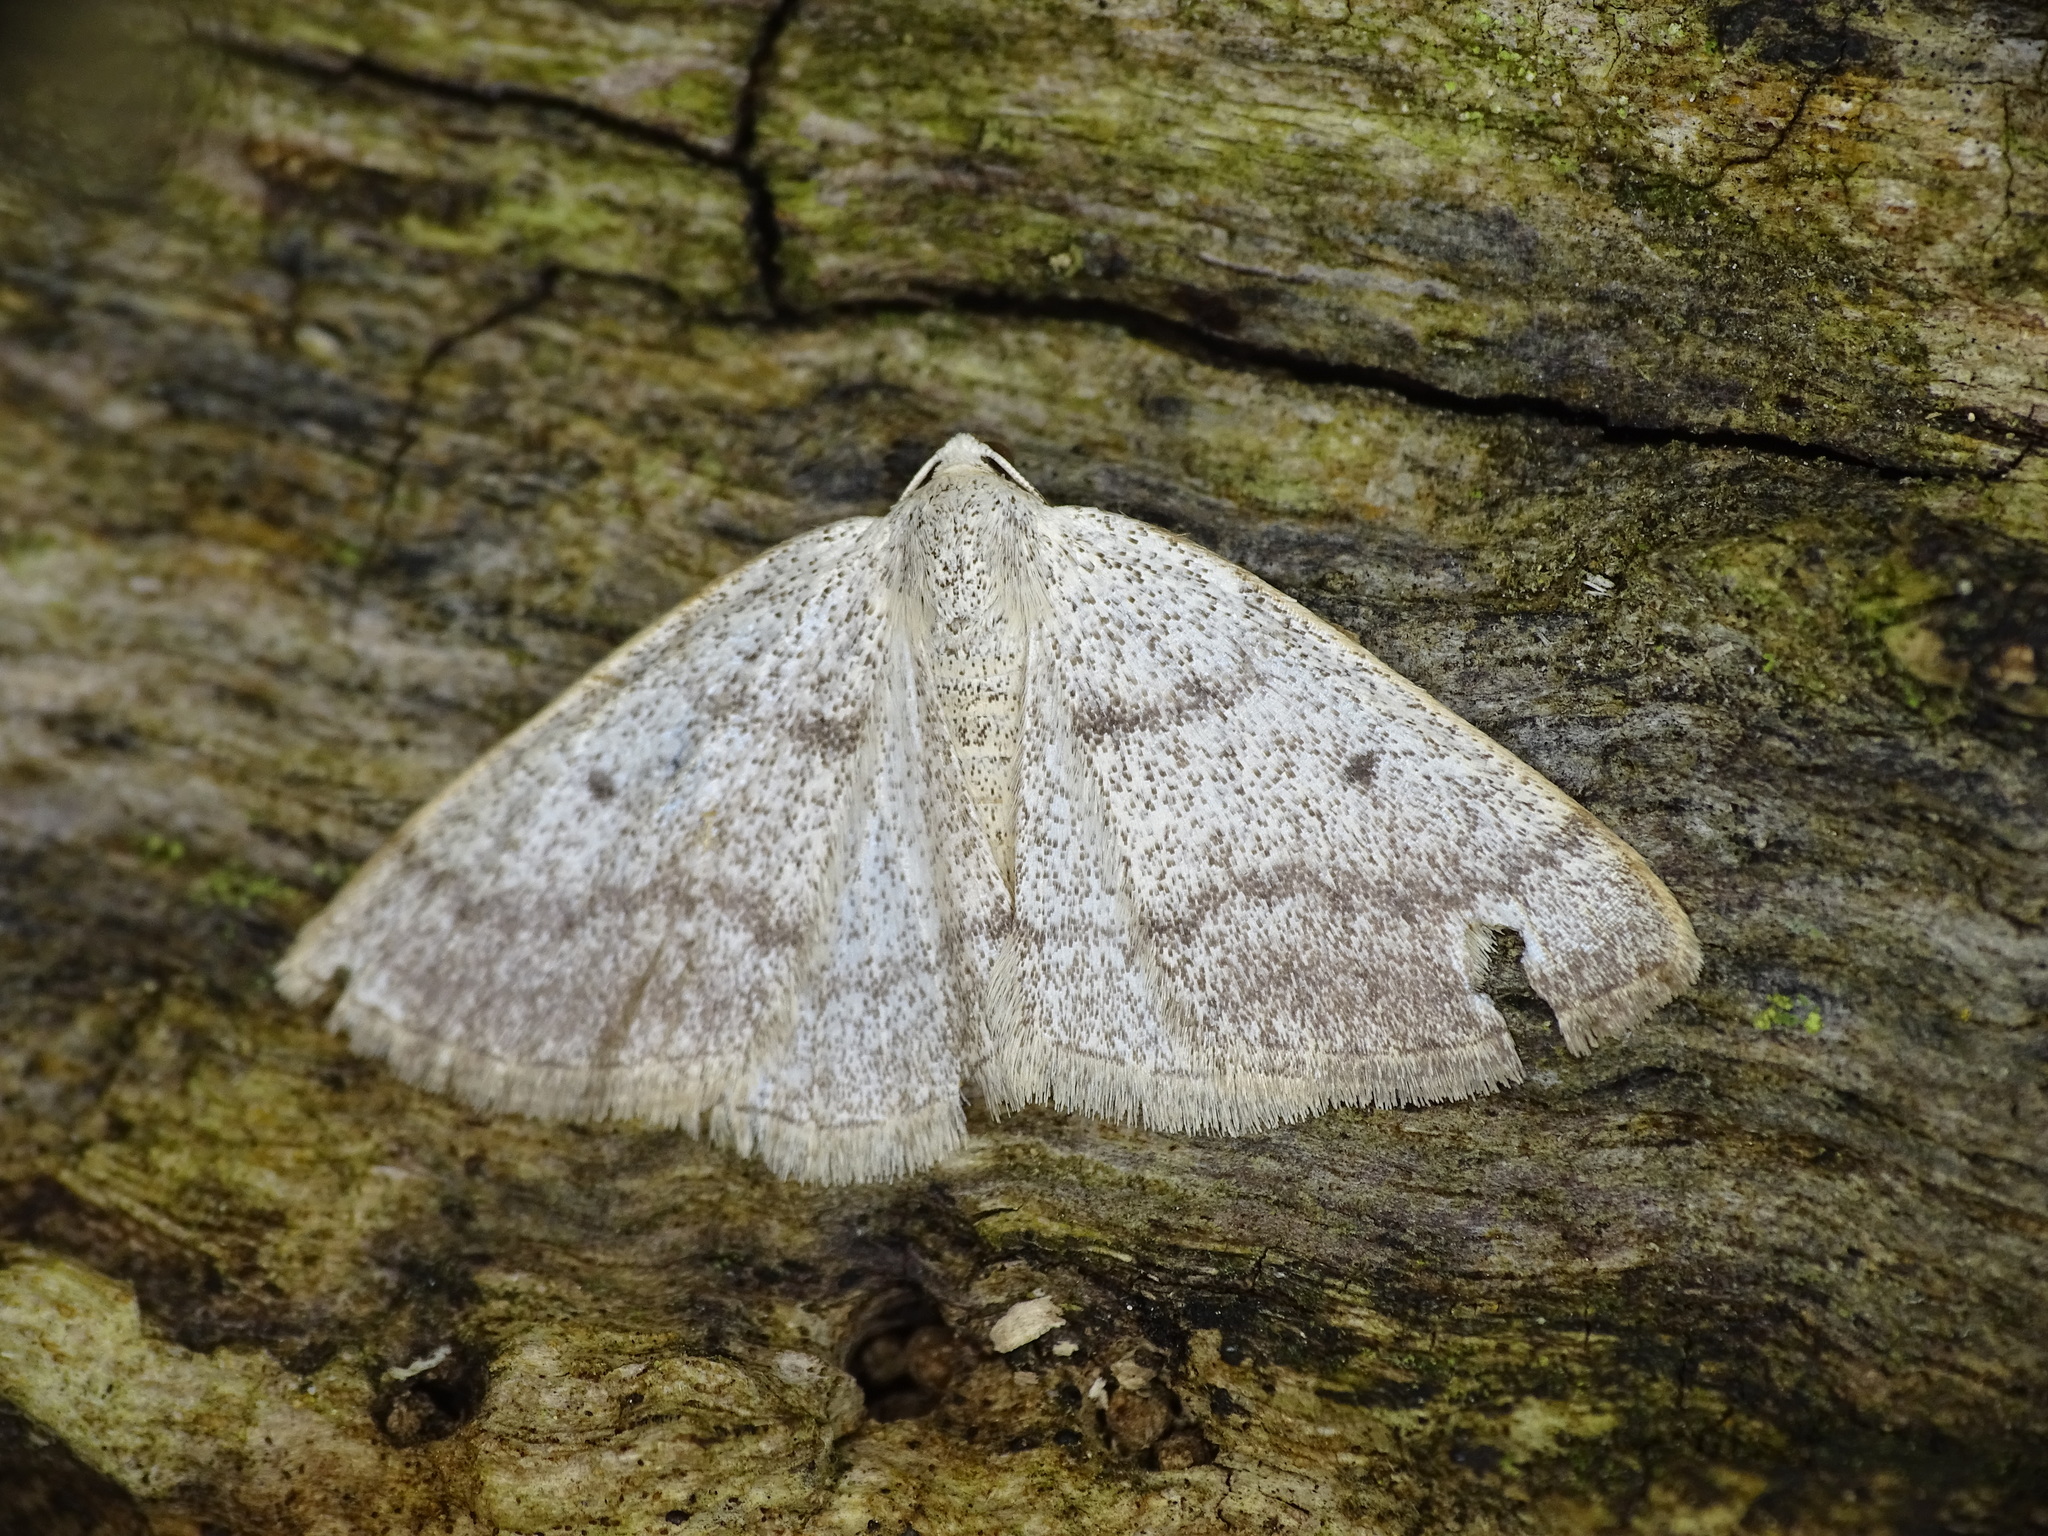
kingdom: Animalia
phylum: Arthropoda
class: Insecta
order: Lepidoptera
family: Geometridae
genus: Lomographa
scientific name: Lomographa glomeraria
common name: Gray spring moth
